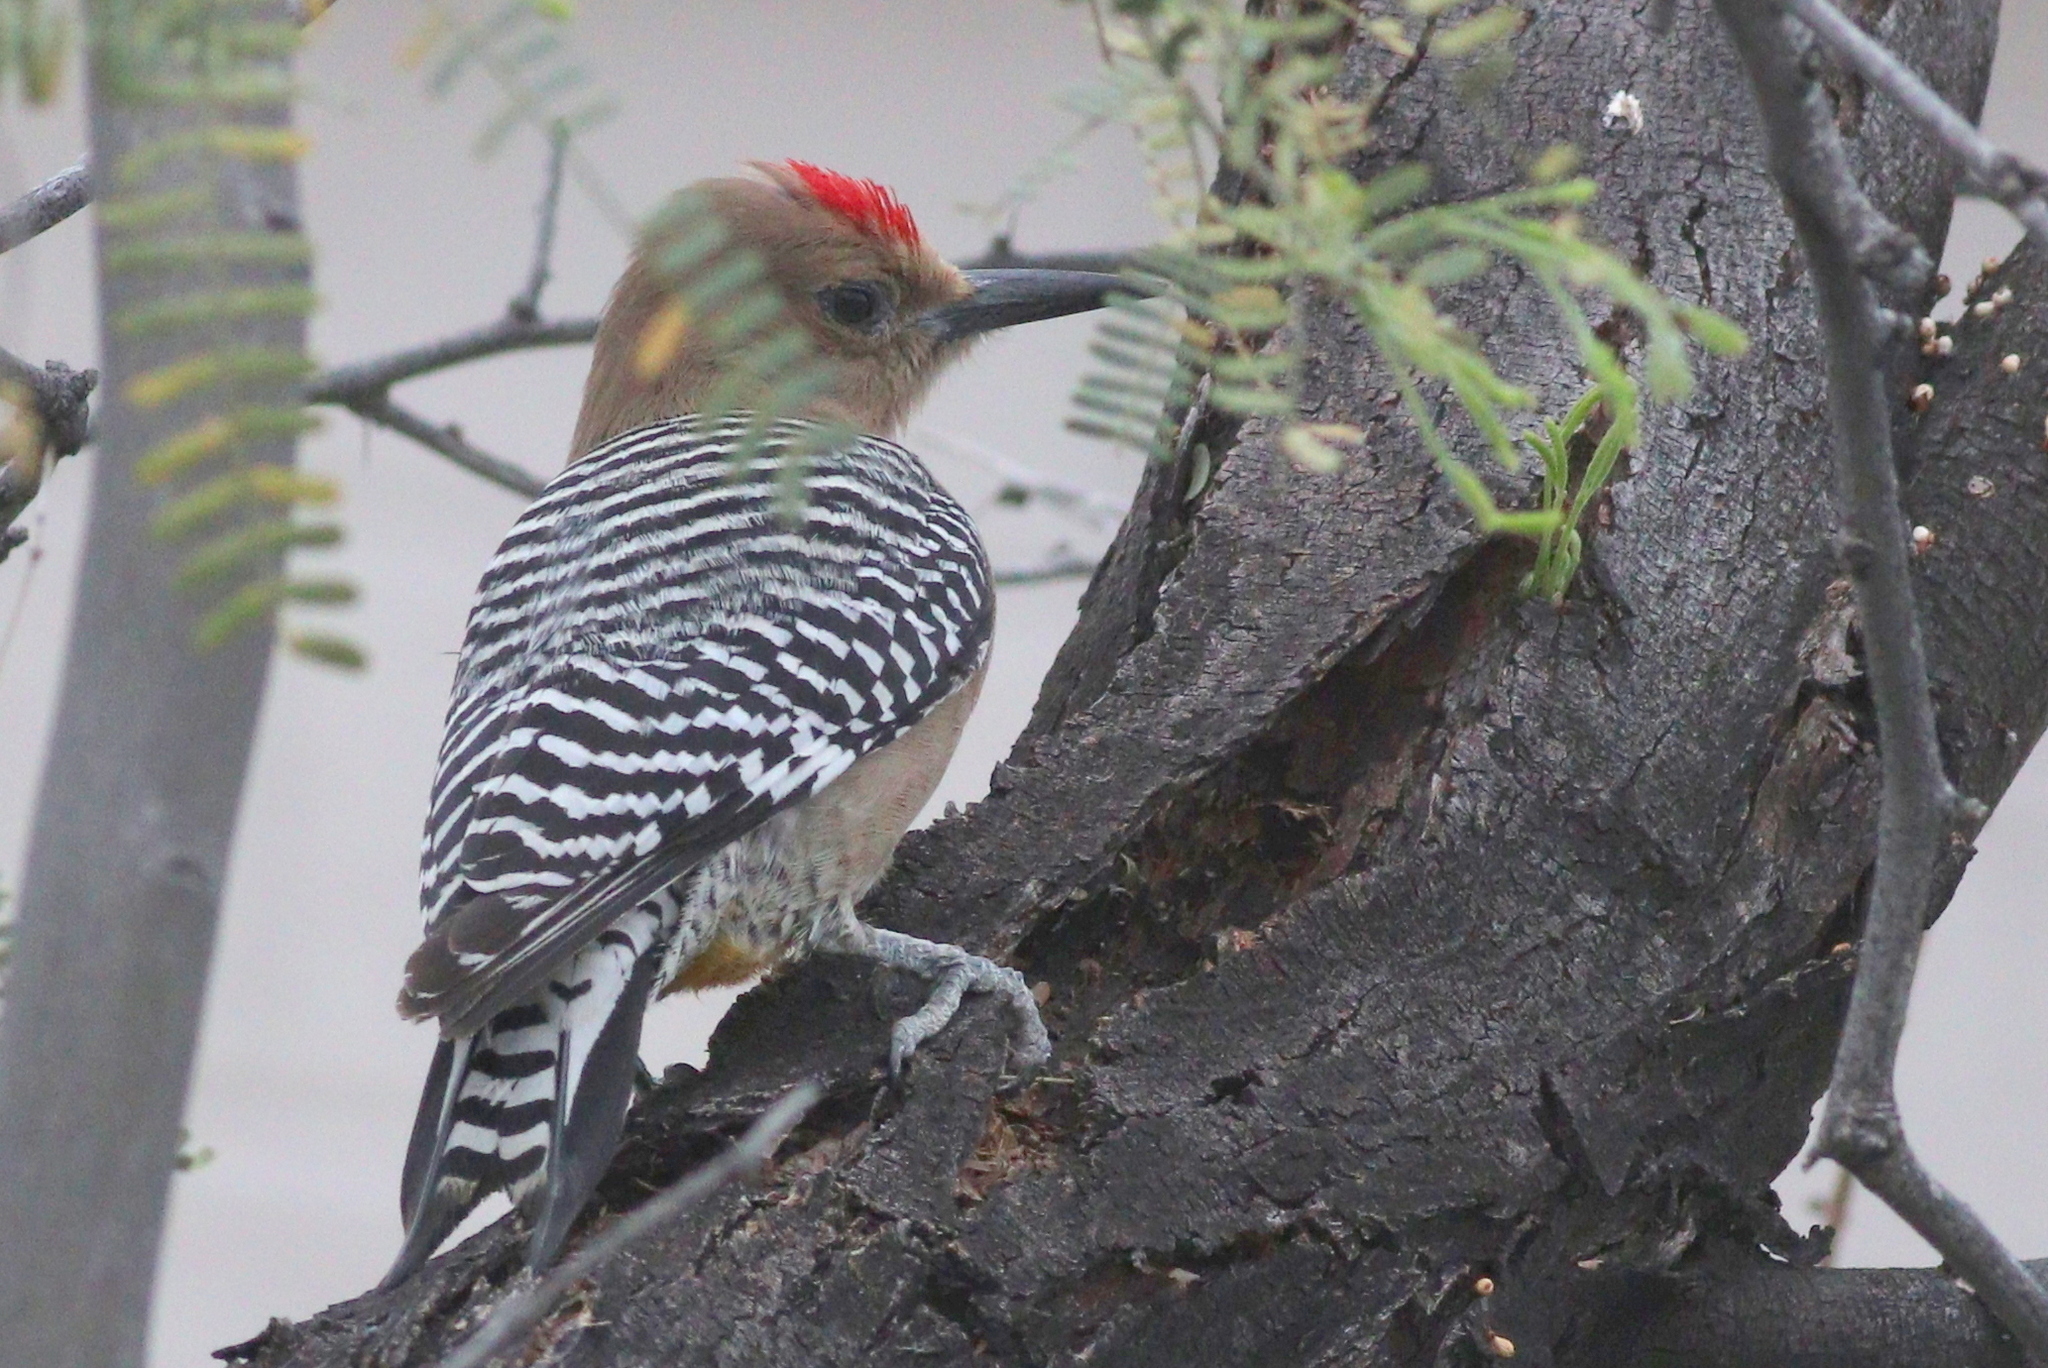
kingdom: Animalia
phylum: Chordata
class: Aves
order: Piciformes
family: Picidae
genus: Melanerpes
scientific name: Melanerpes uropygialis
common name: Gila woodpecker
